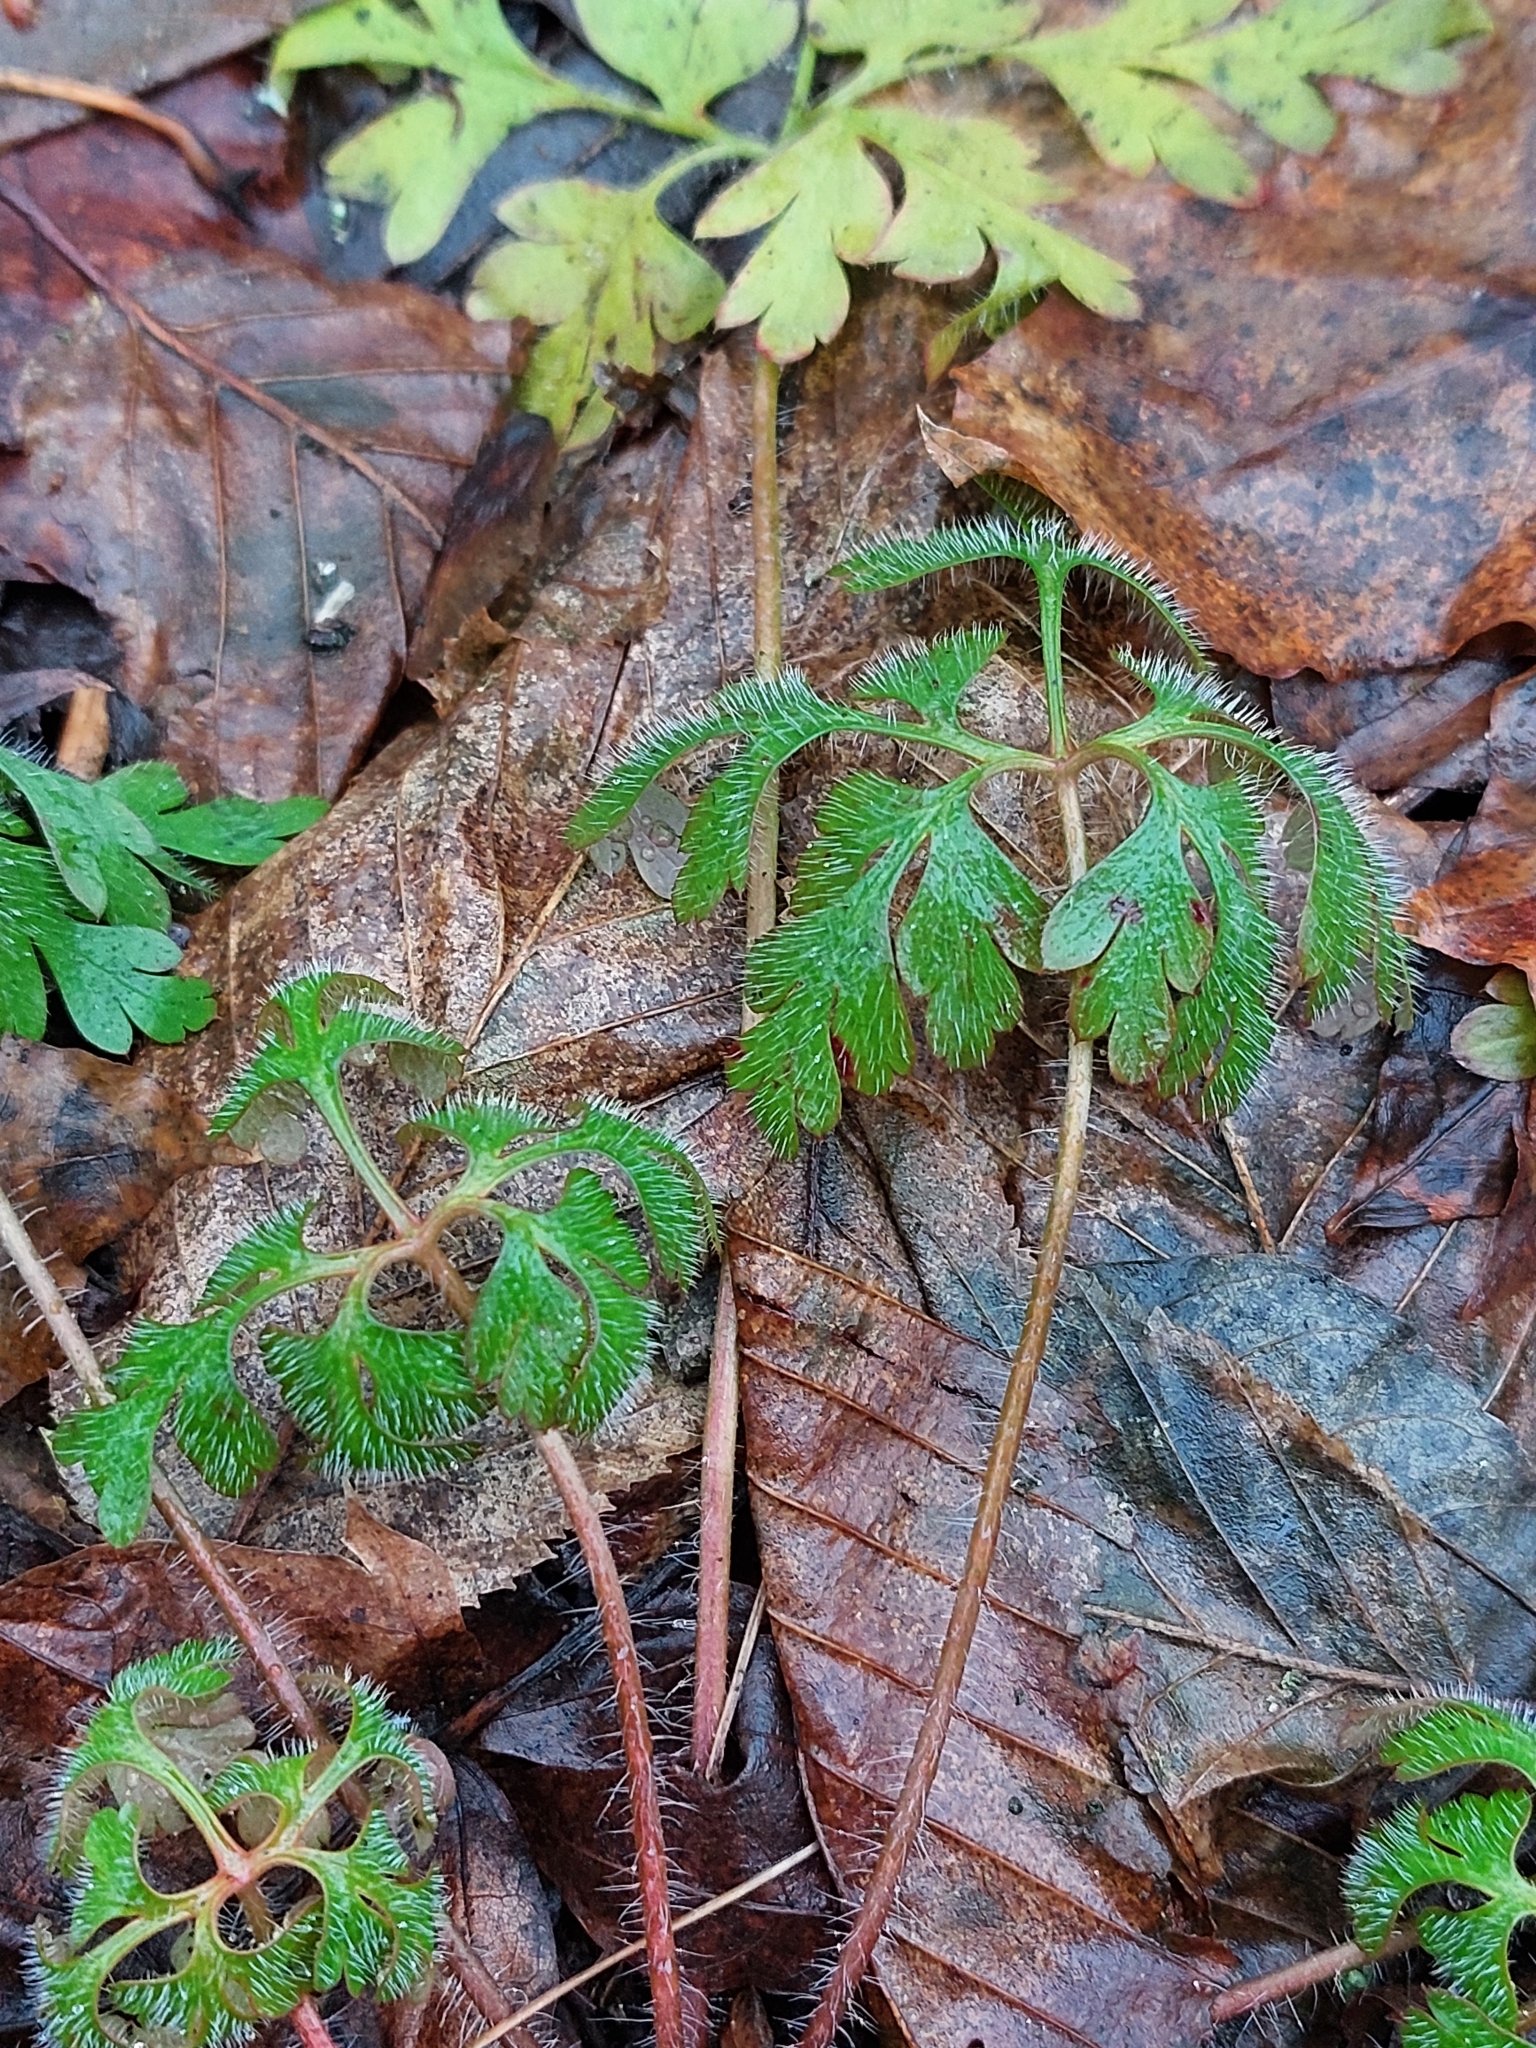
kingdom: Plantae
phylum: Tracheophyta
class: Magnoliopsida
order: Geraniales
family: Geraniaceae
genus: Geranium
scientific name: Geranium robertianum
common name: Herb-robert
